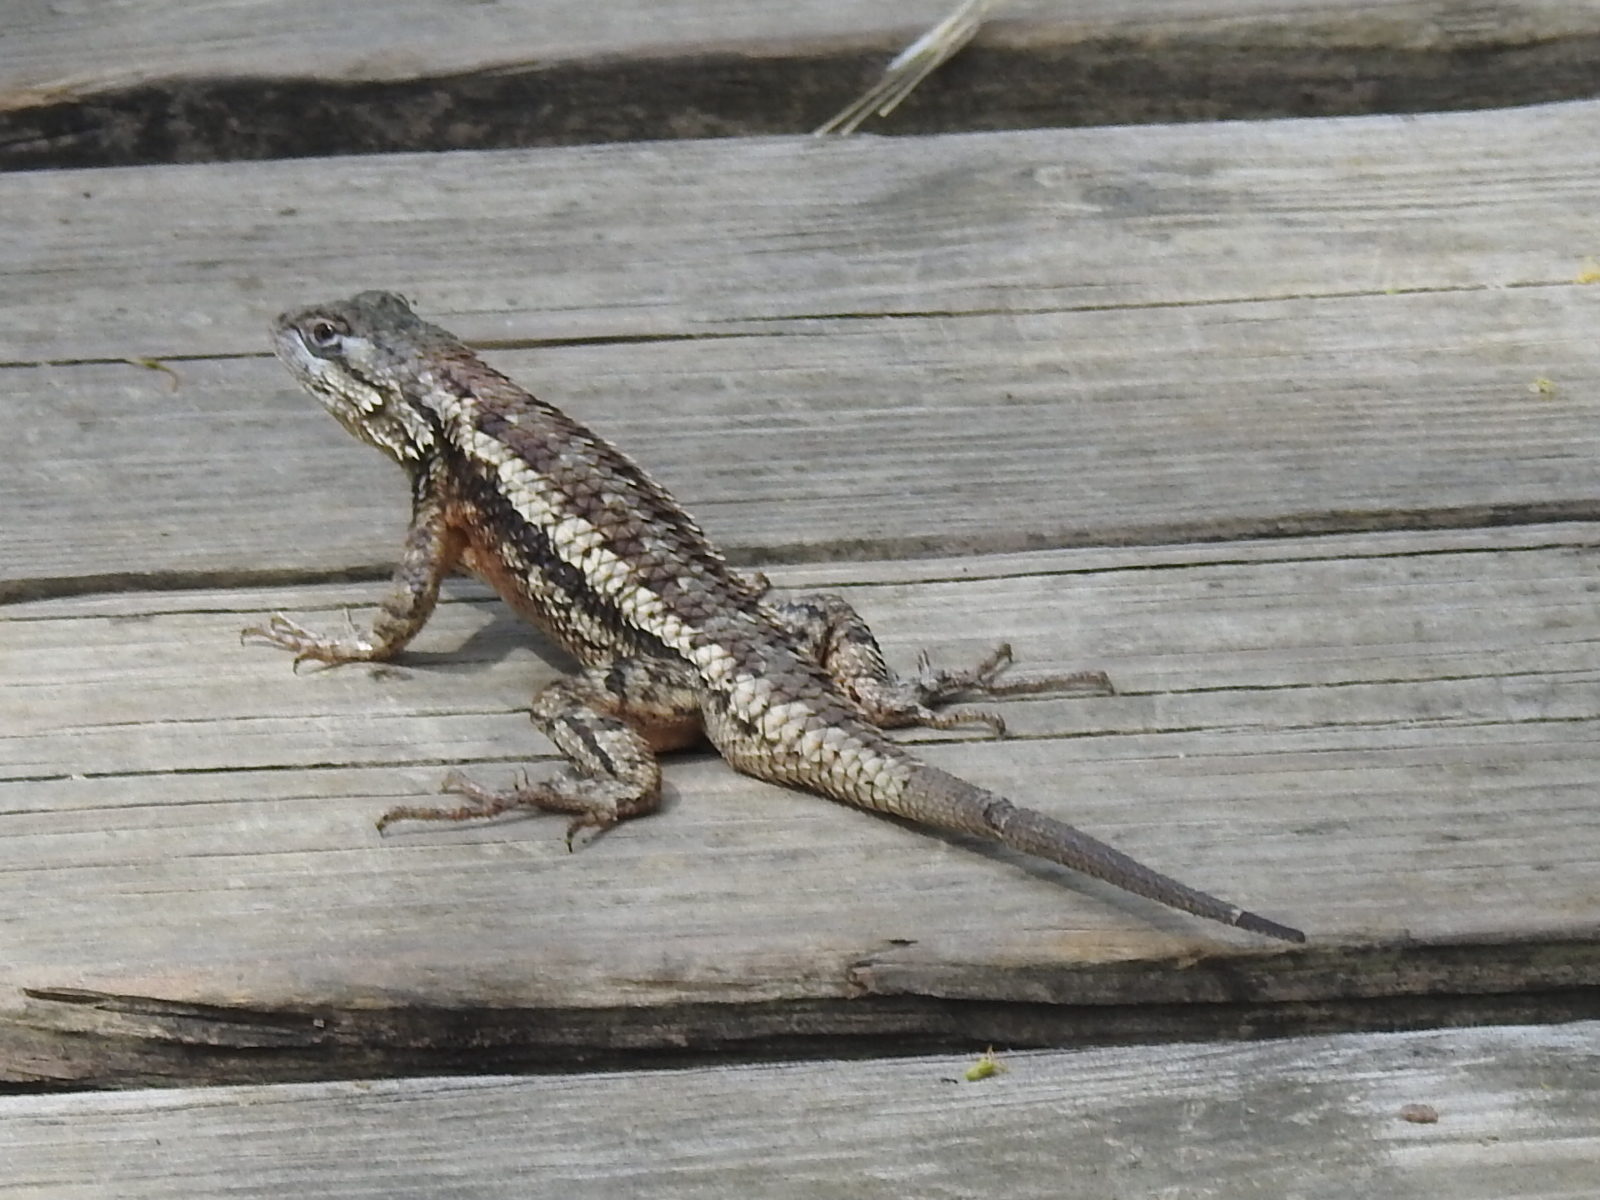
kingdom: Animalia
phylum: Chordata
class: Squamata
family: Phrynosomatidae
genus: Sceloporus
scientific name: Sceloporus olivaceus
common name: Texas spiny lizard
